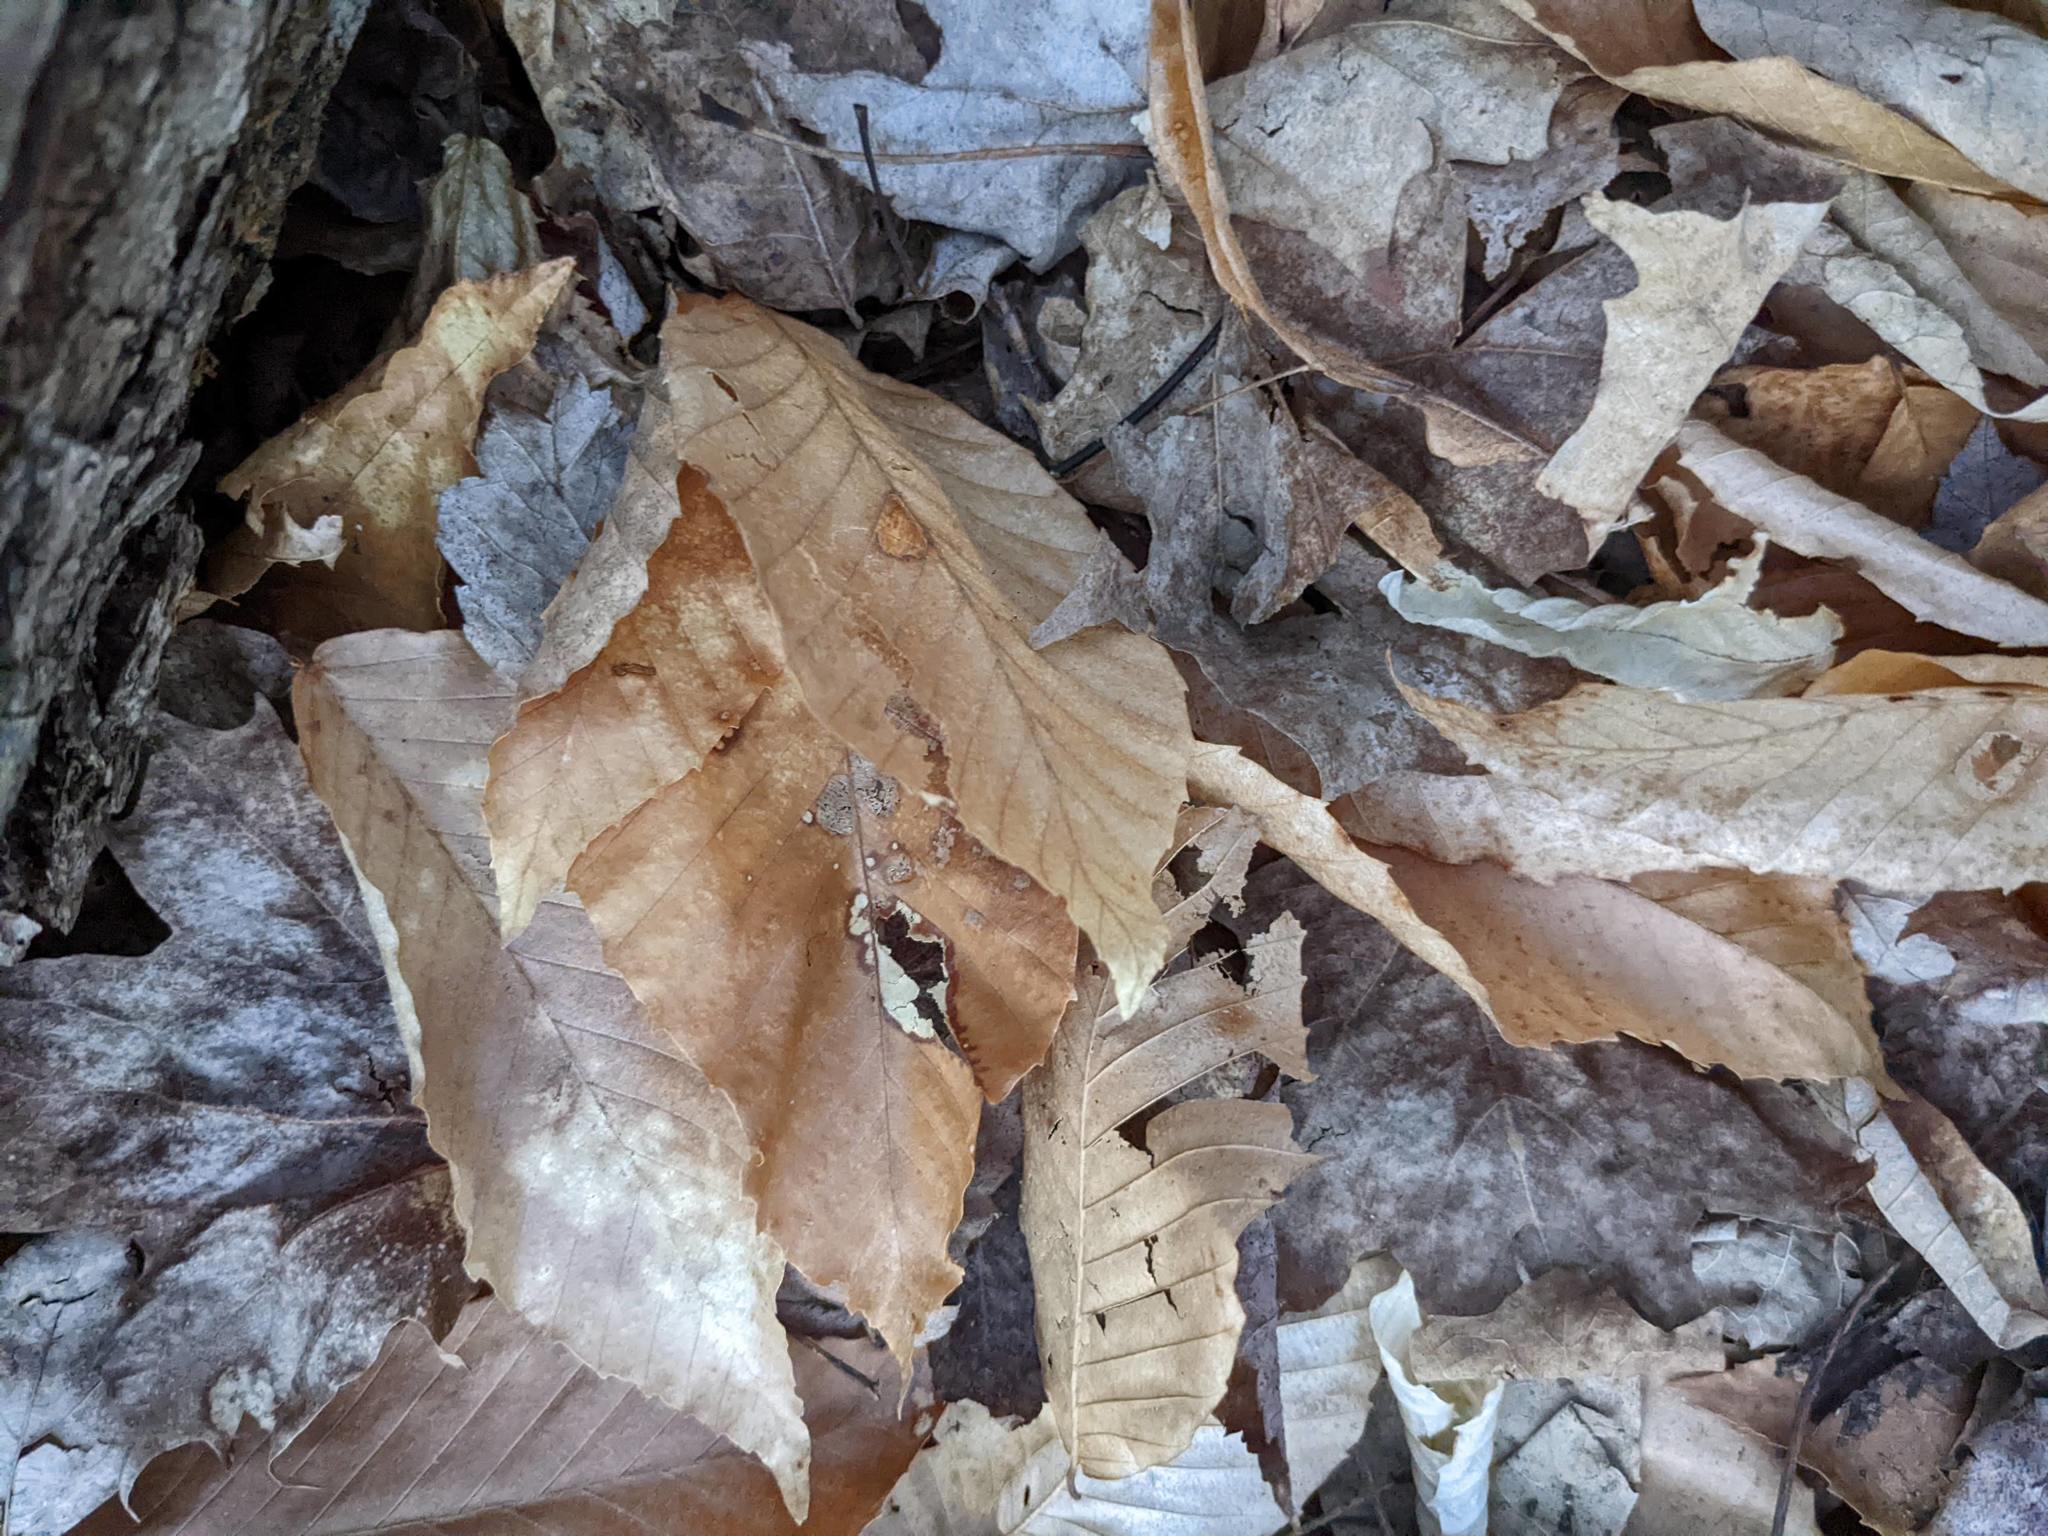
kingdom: Plantae
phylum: Tracheophyta
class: Magnoliopsida
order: Fagales
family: Fagaceae
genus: Fagus
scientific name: Fagus grandifolia
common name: American beech
